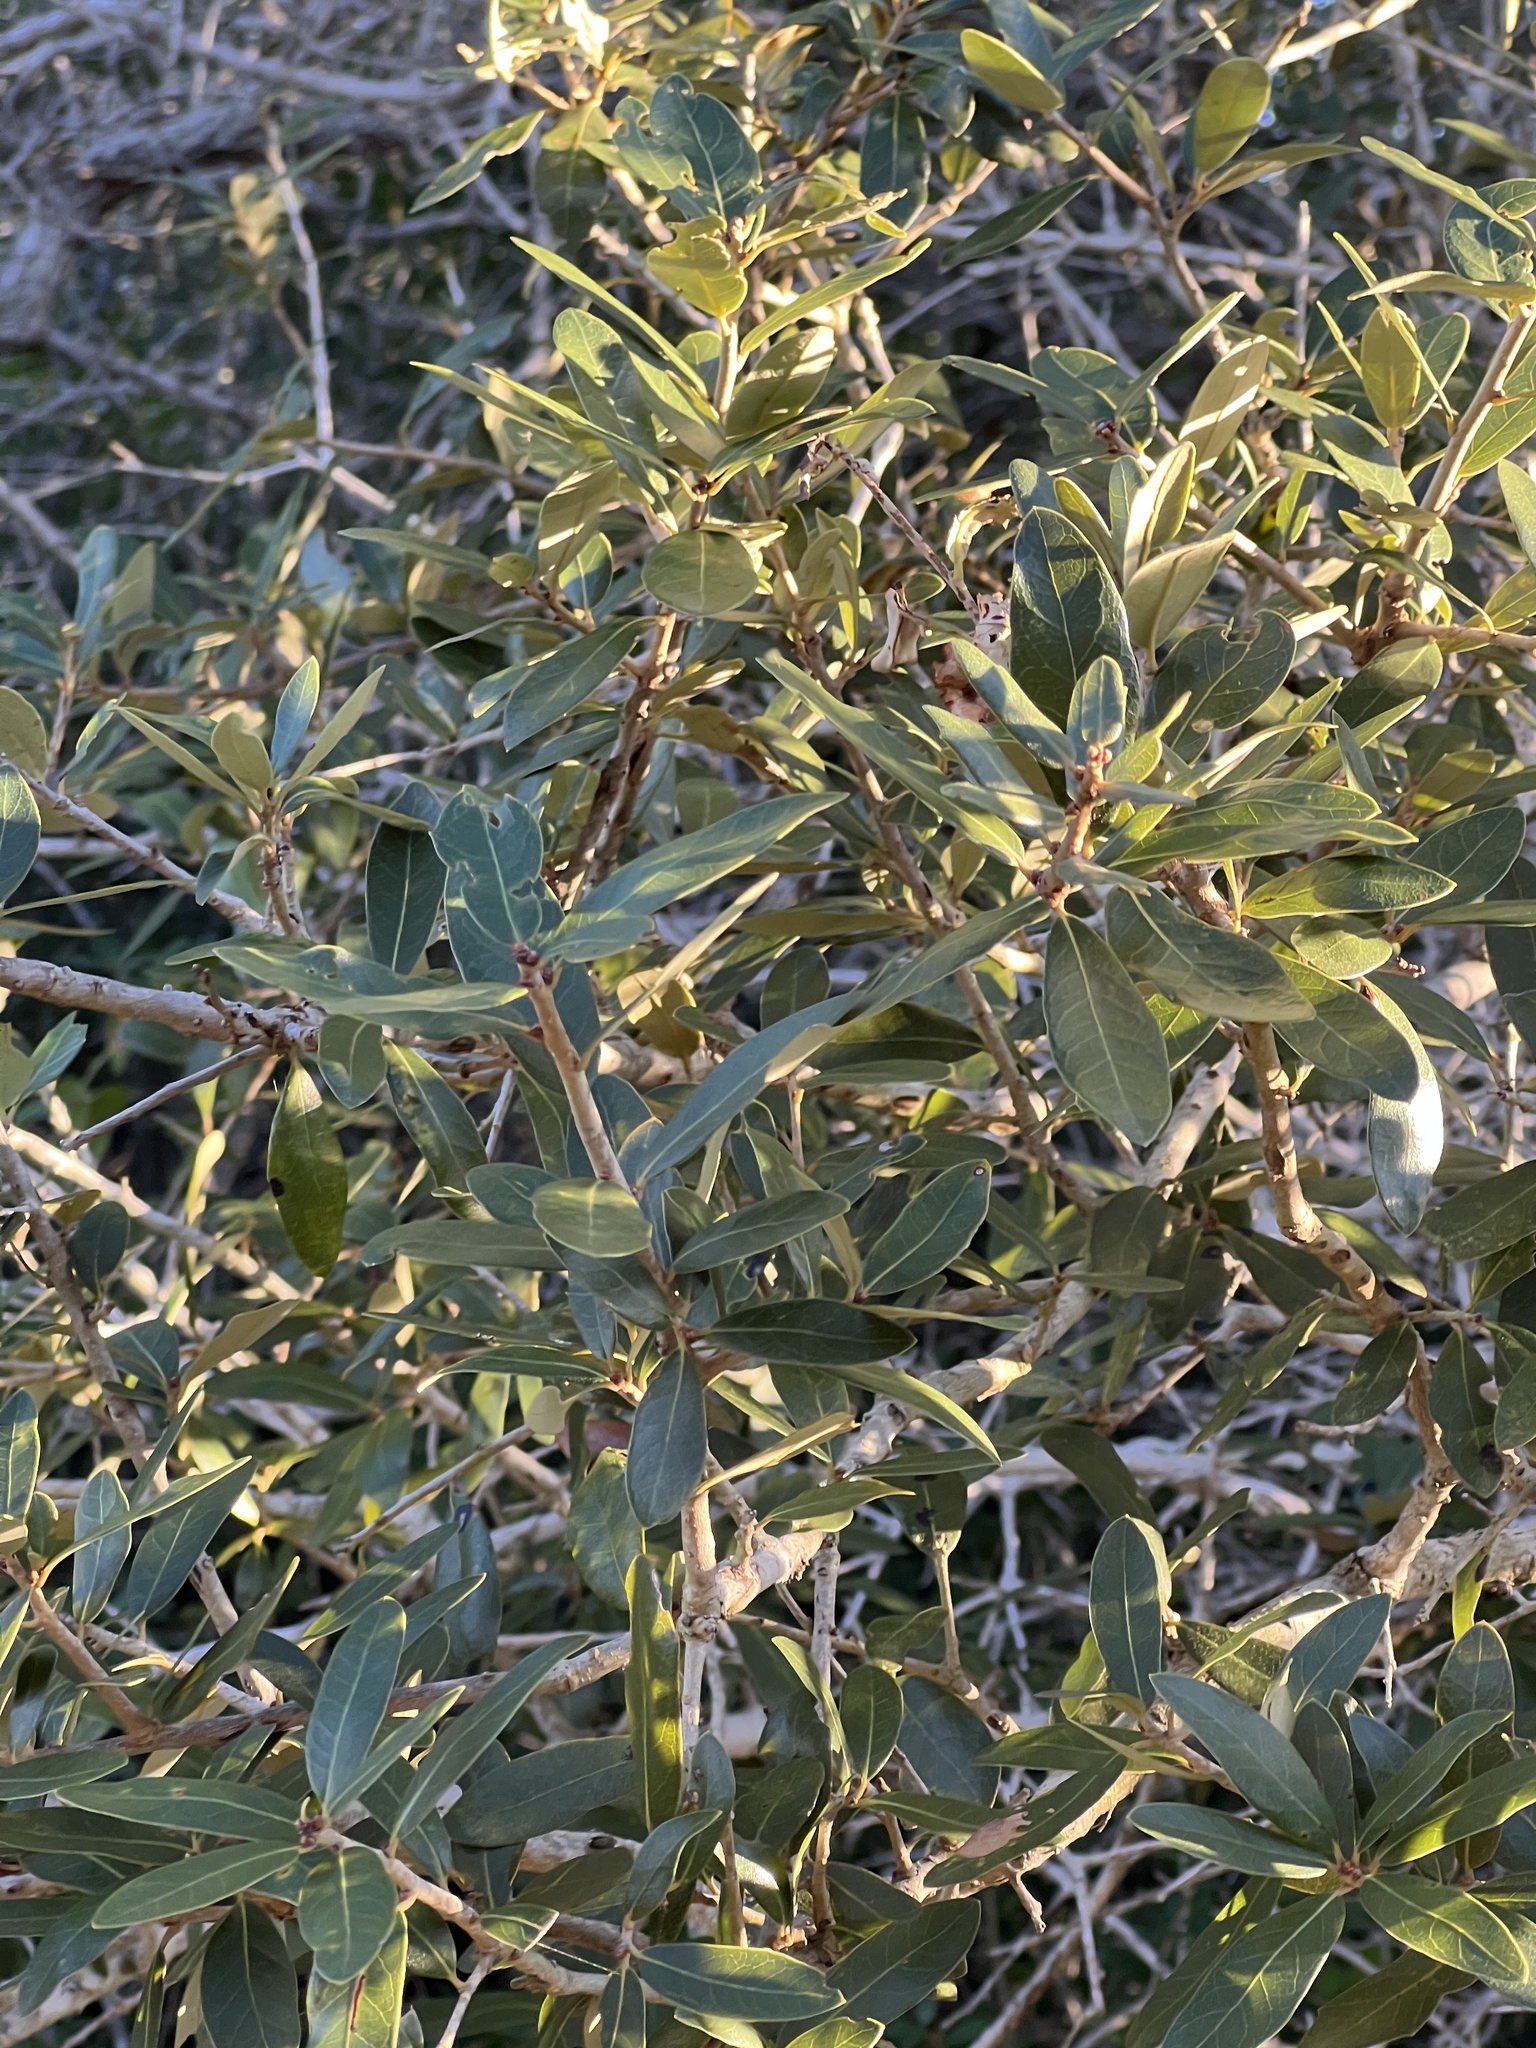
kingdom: Plantae
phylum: Tracheophyta
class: Magnoliopsida
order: Fagales
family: Fagaceae
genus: Quercus
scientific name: Quercus virginiana
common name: Southern live oak
